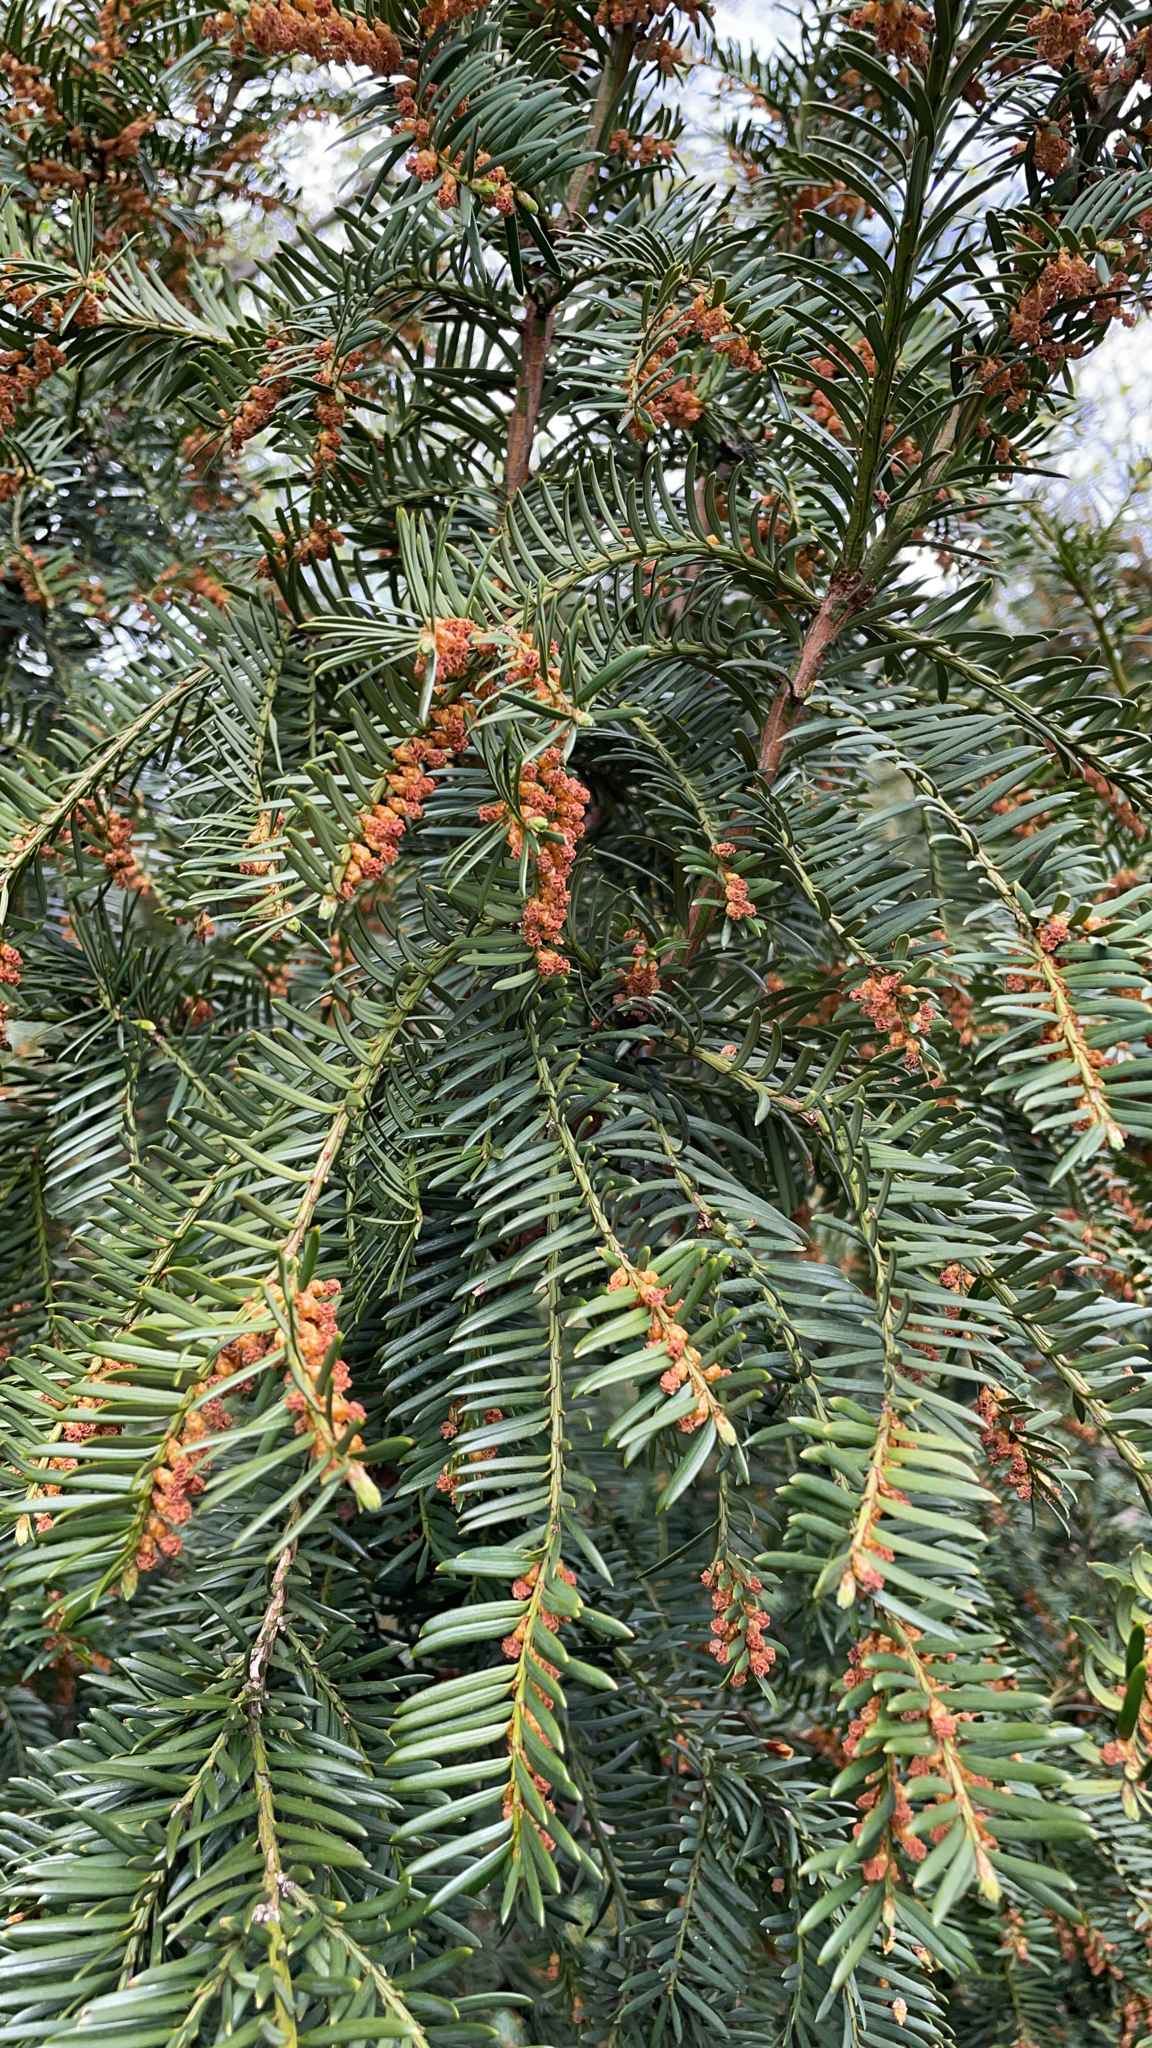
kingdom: Plantae
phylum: Tracheophyta
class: Pinopsida
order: Pinales
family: Taxaceae
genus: Taxus
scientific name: Taxus baccata
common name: Yew
